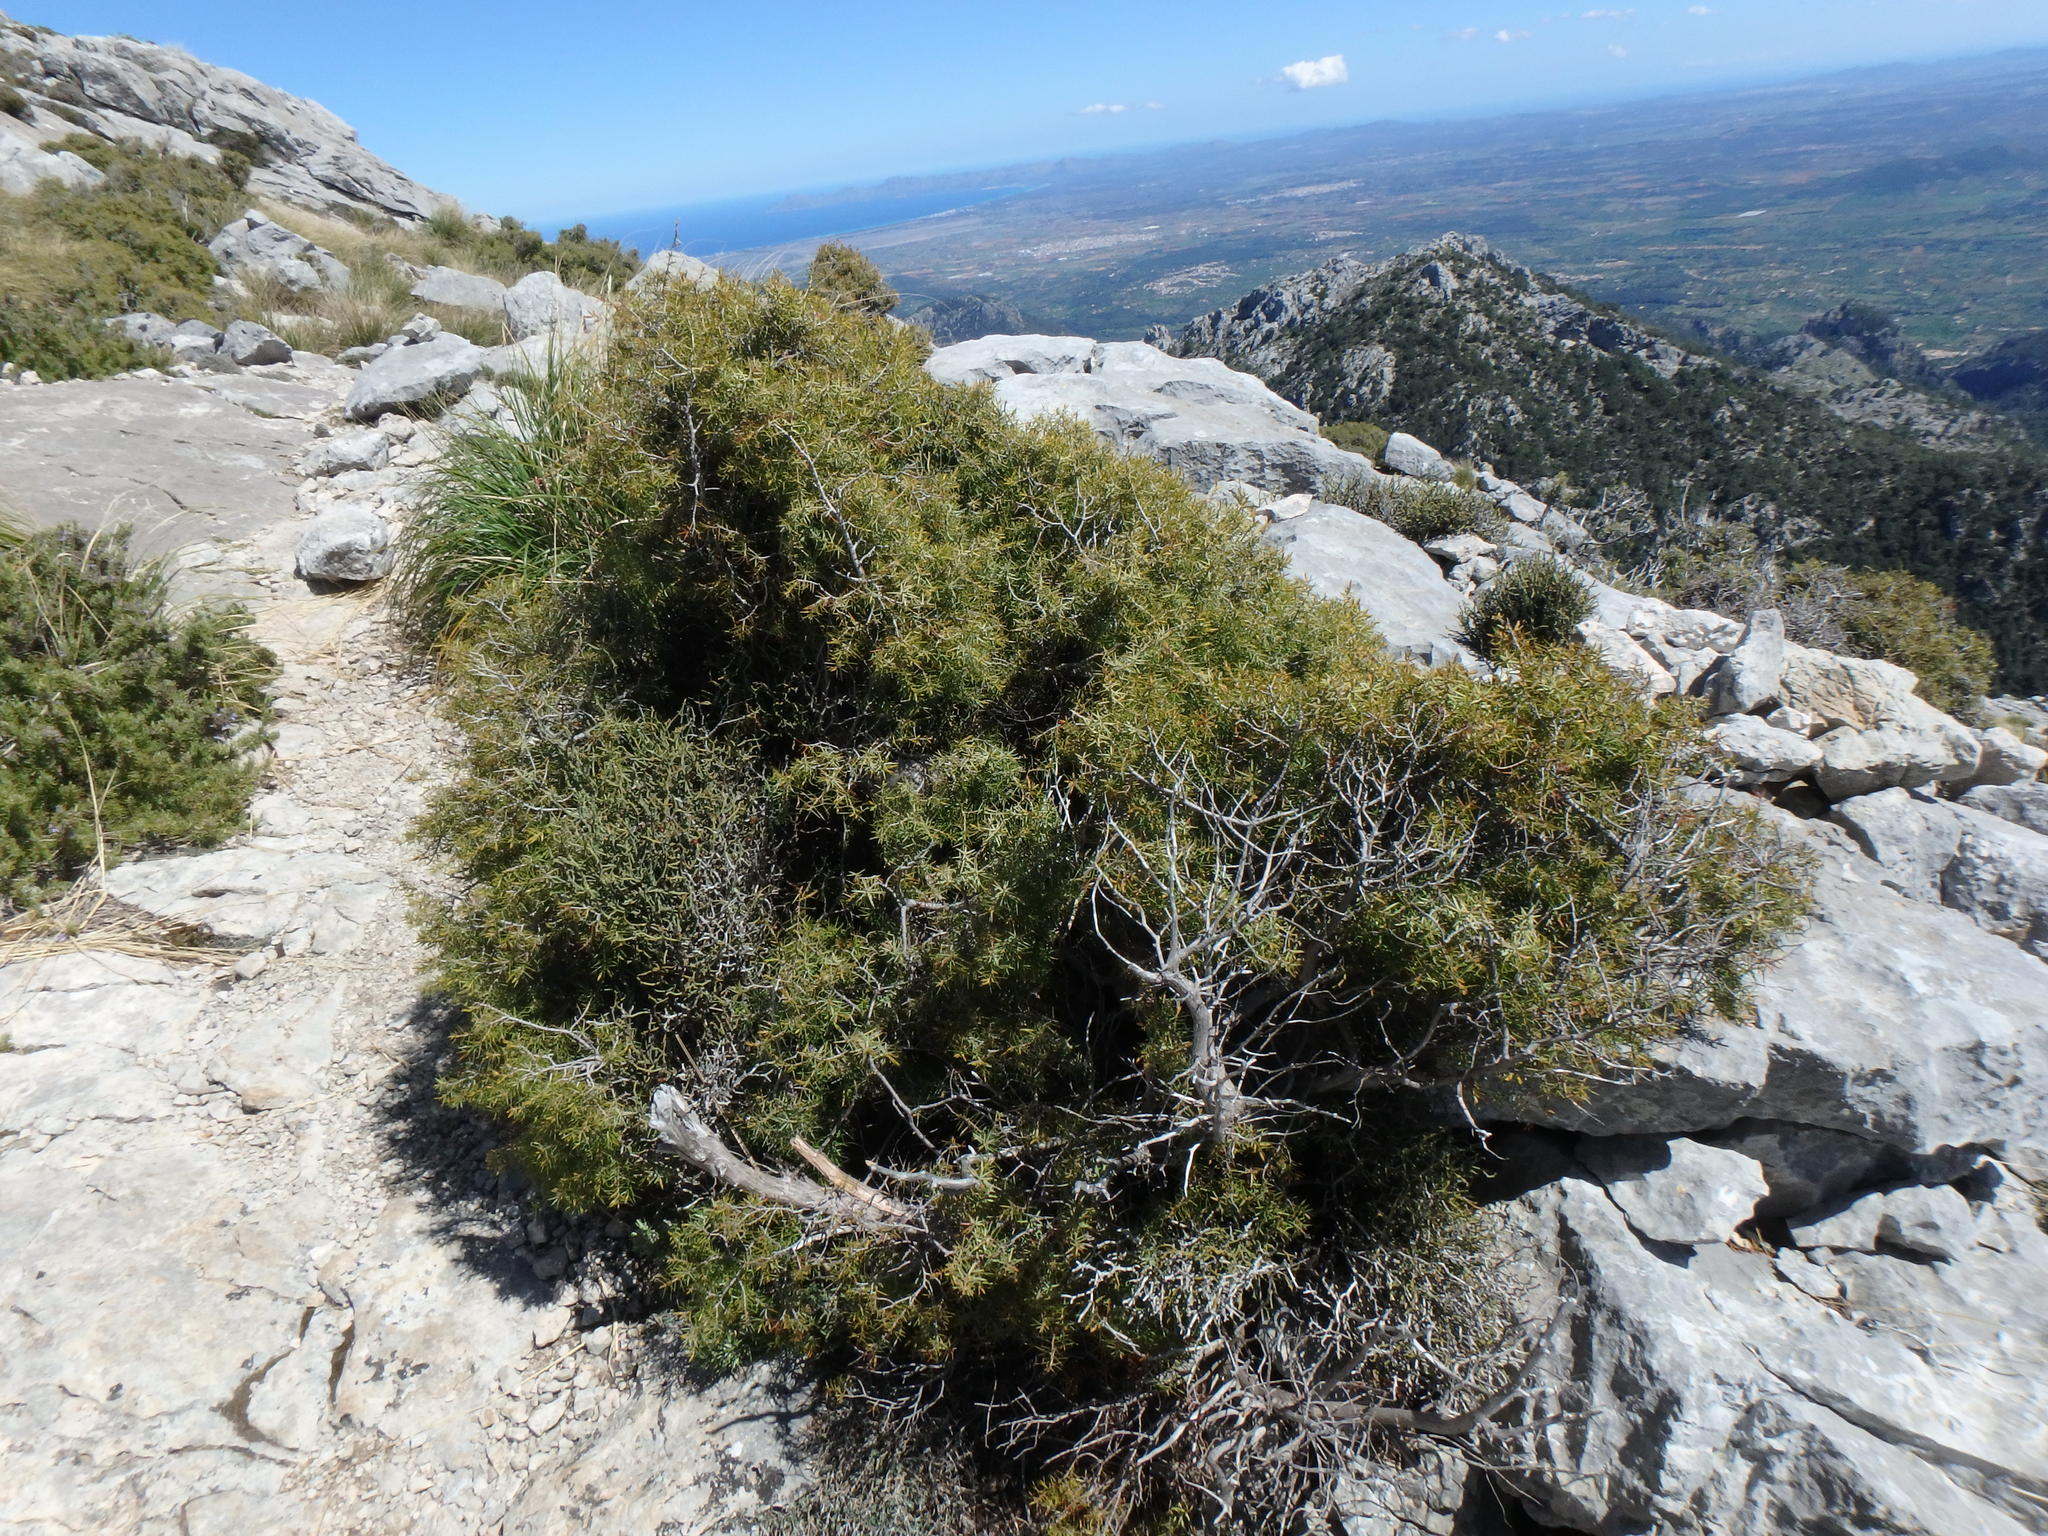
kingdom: Plantae
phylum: Tracheophyta
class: Pinopsida
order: Pinales
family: Cupressaceae
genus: Juniperus
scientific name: Juniperus oxycedrus
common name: Prickly juniper
